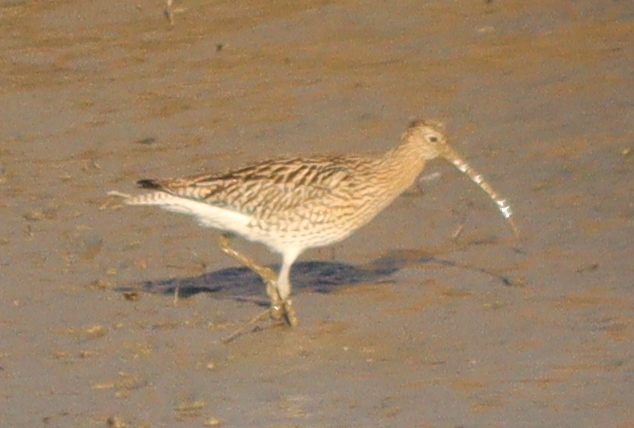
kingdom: Animalia
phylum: Chordata
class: Aves
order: Charadriiformes
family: Scolopacidae
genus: Numenius
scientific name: Numenius arquata
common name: Eurasian curlew
